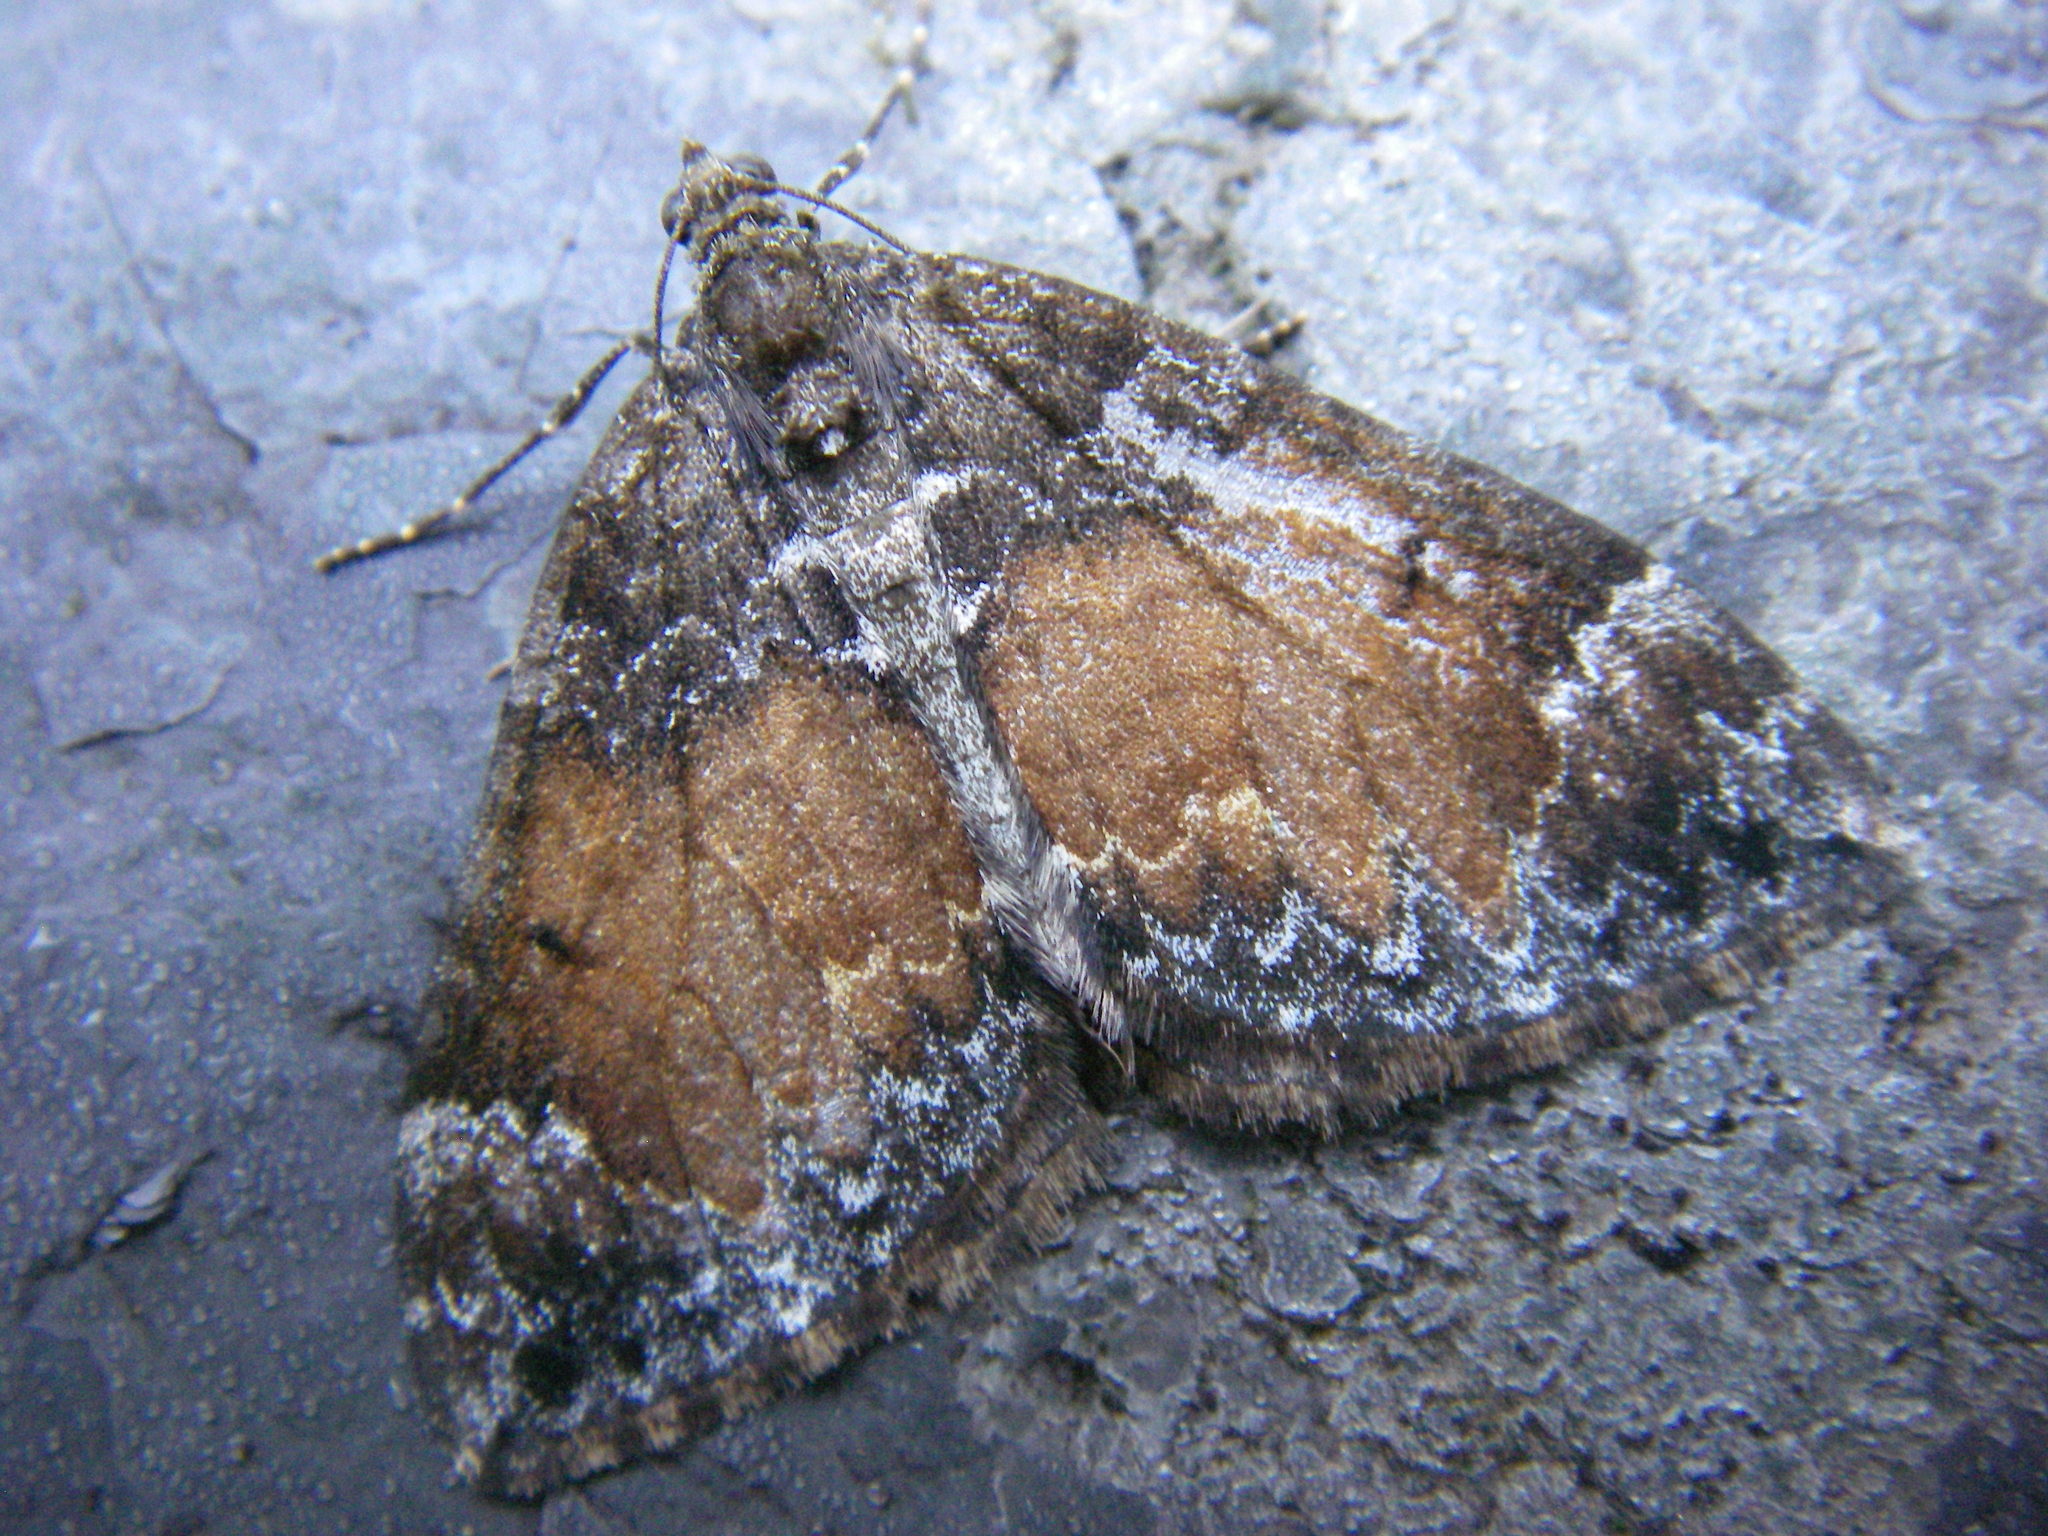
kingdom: Animalia
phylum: Arthropoda
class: Insecta
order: Lepidoptera
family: Geometridae
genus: Dysstroma
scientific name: Dysstroma truncata
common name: Common marbled carpet
